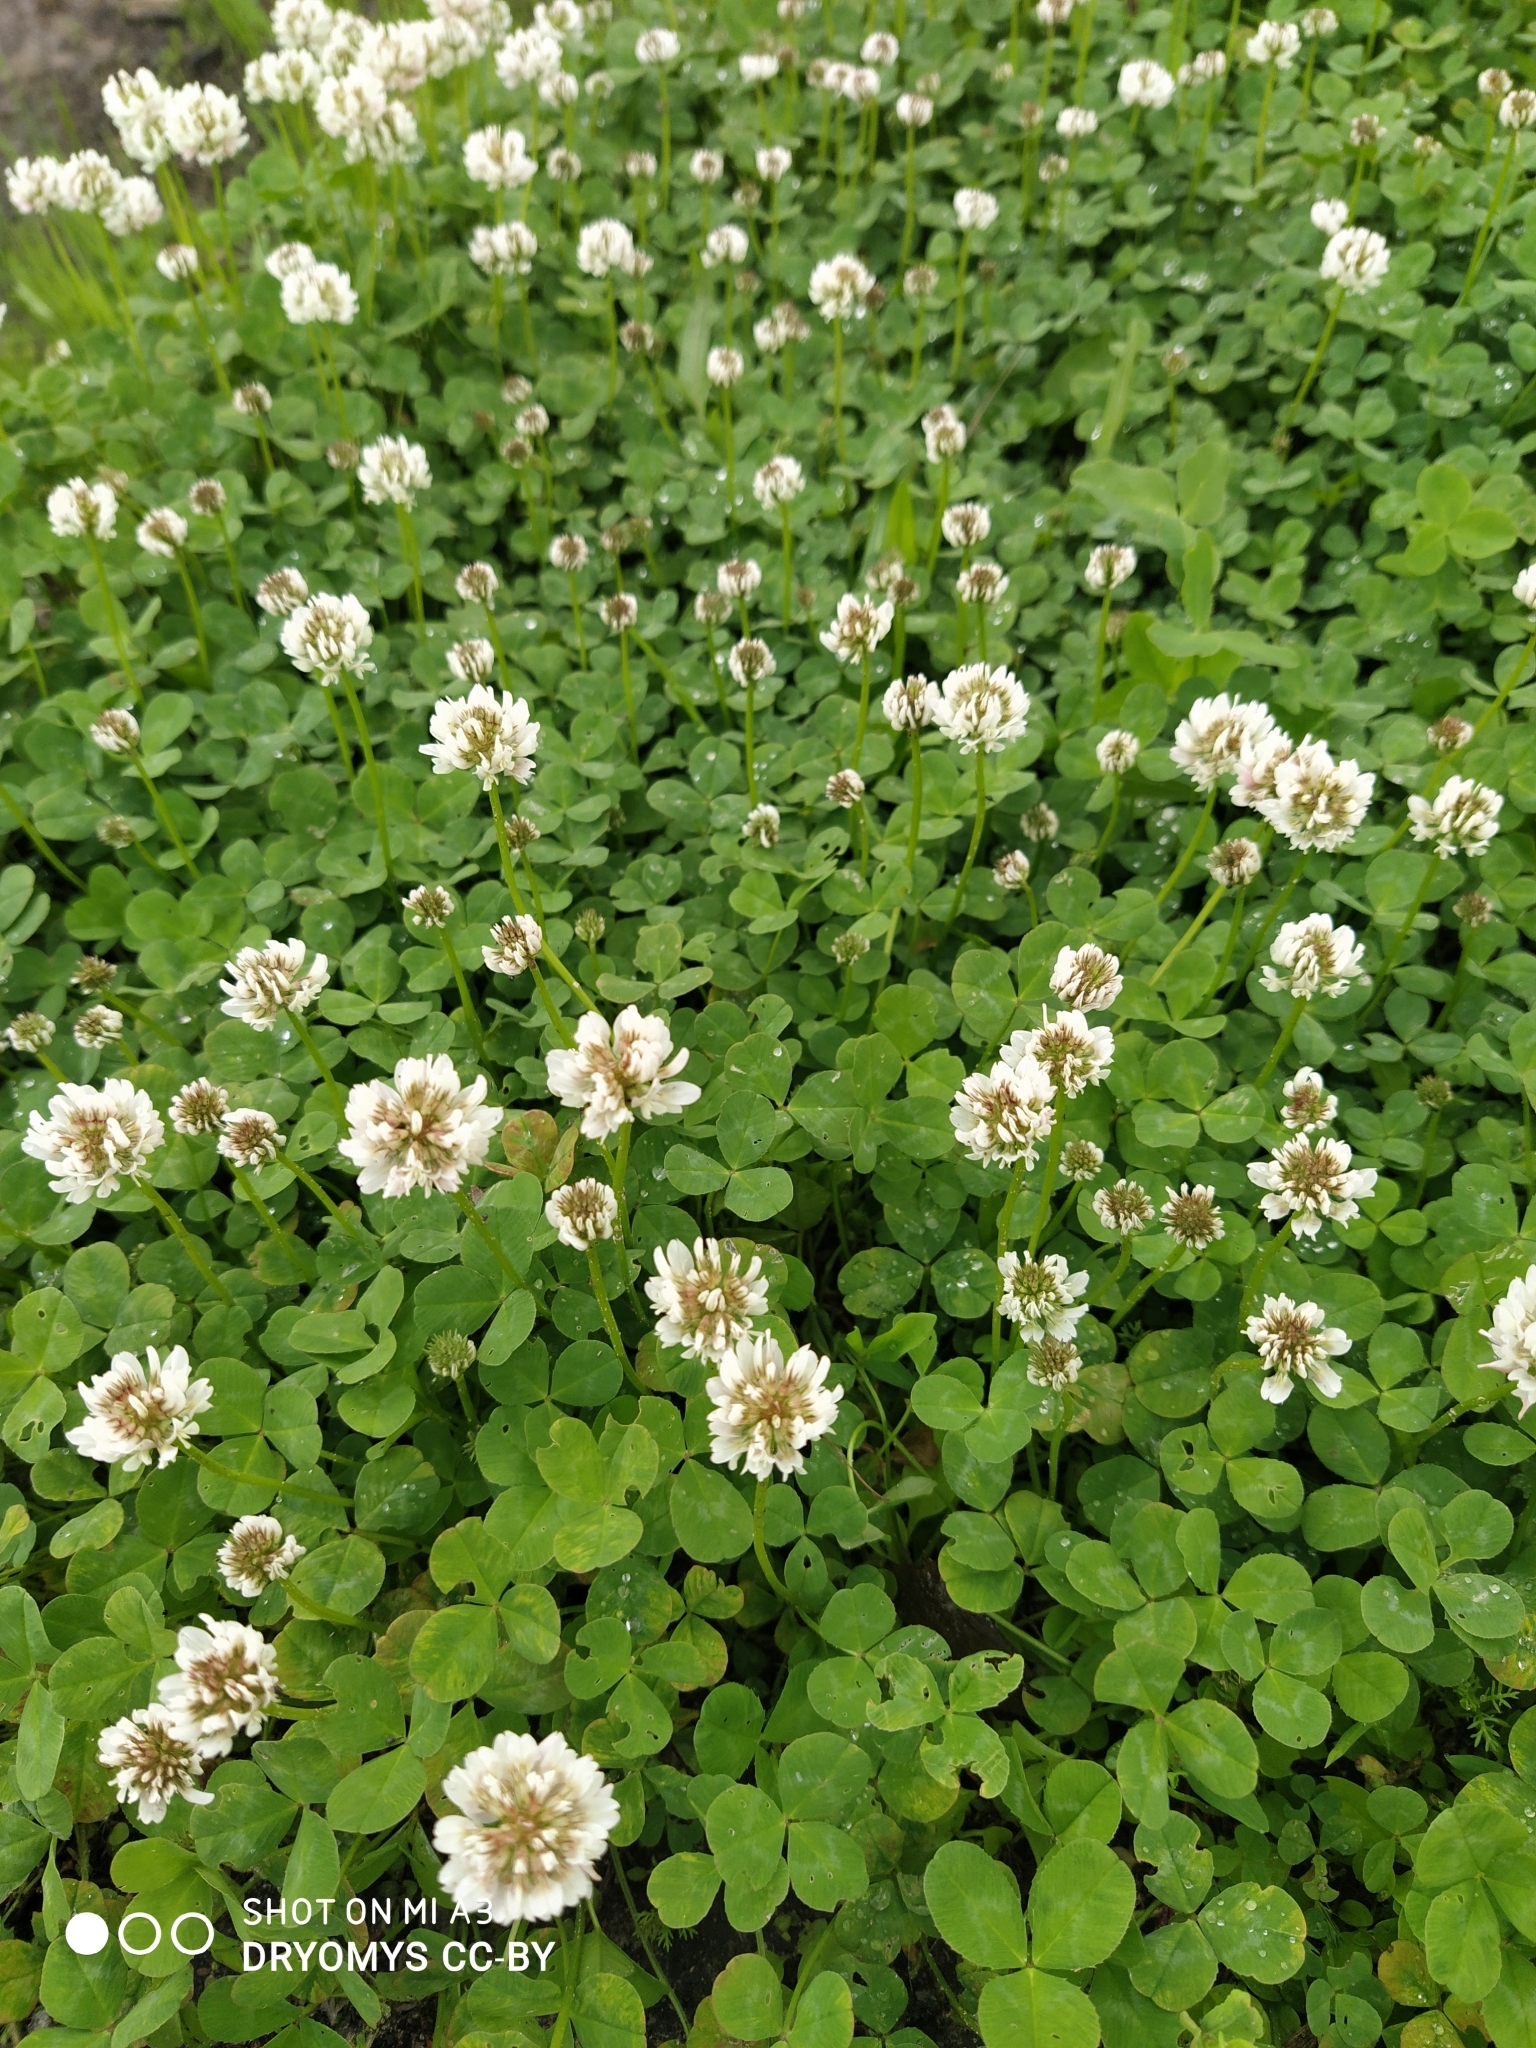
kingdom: Plantae
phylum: Tracheophyta
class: Magnoliopsida
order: Fabales
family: Fabaceae
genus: Trifolium
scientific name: Trifolium repens
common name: White clover
